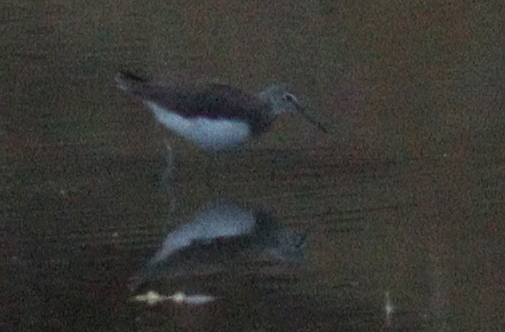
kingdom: Animalia
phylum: Chordata
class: Aves
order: Charadriiformes
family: Scolopacidae
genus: Tringa
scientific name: Tringa ochropus
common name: Green sandpiper
